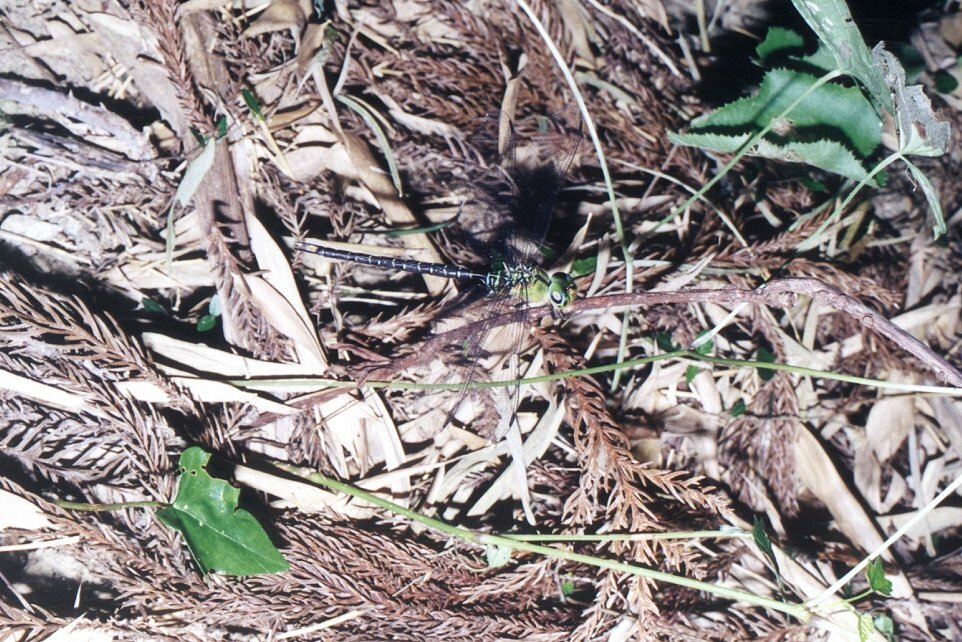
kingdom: Animalia
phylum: Arthropoda
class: Insecta
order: Odonata
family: Aeshnidae
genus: Gynacantha
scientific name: Gynacantha japonica
